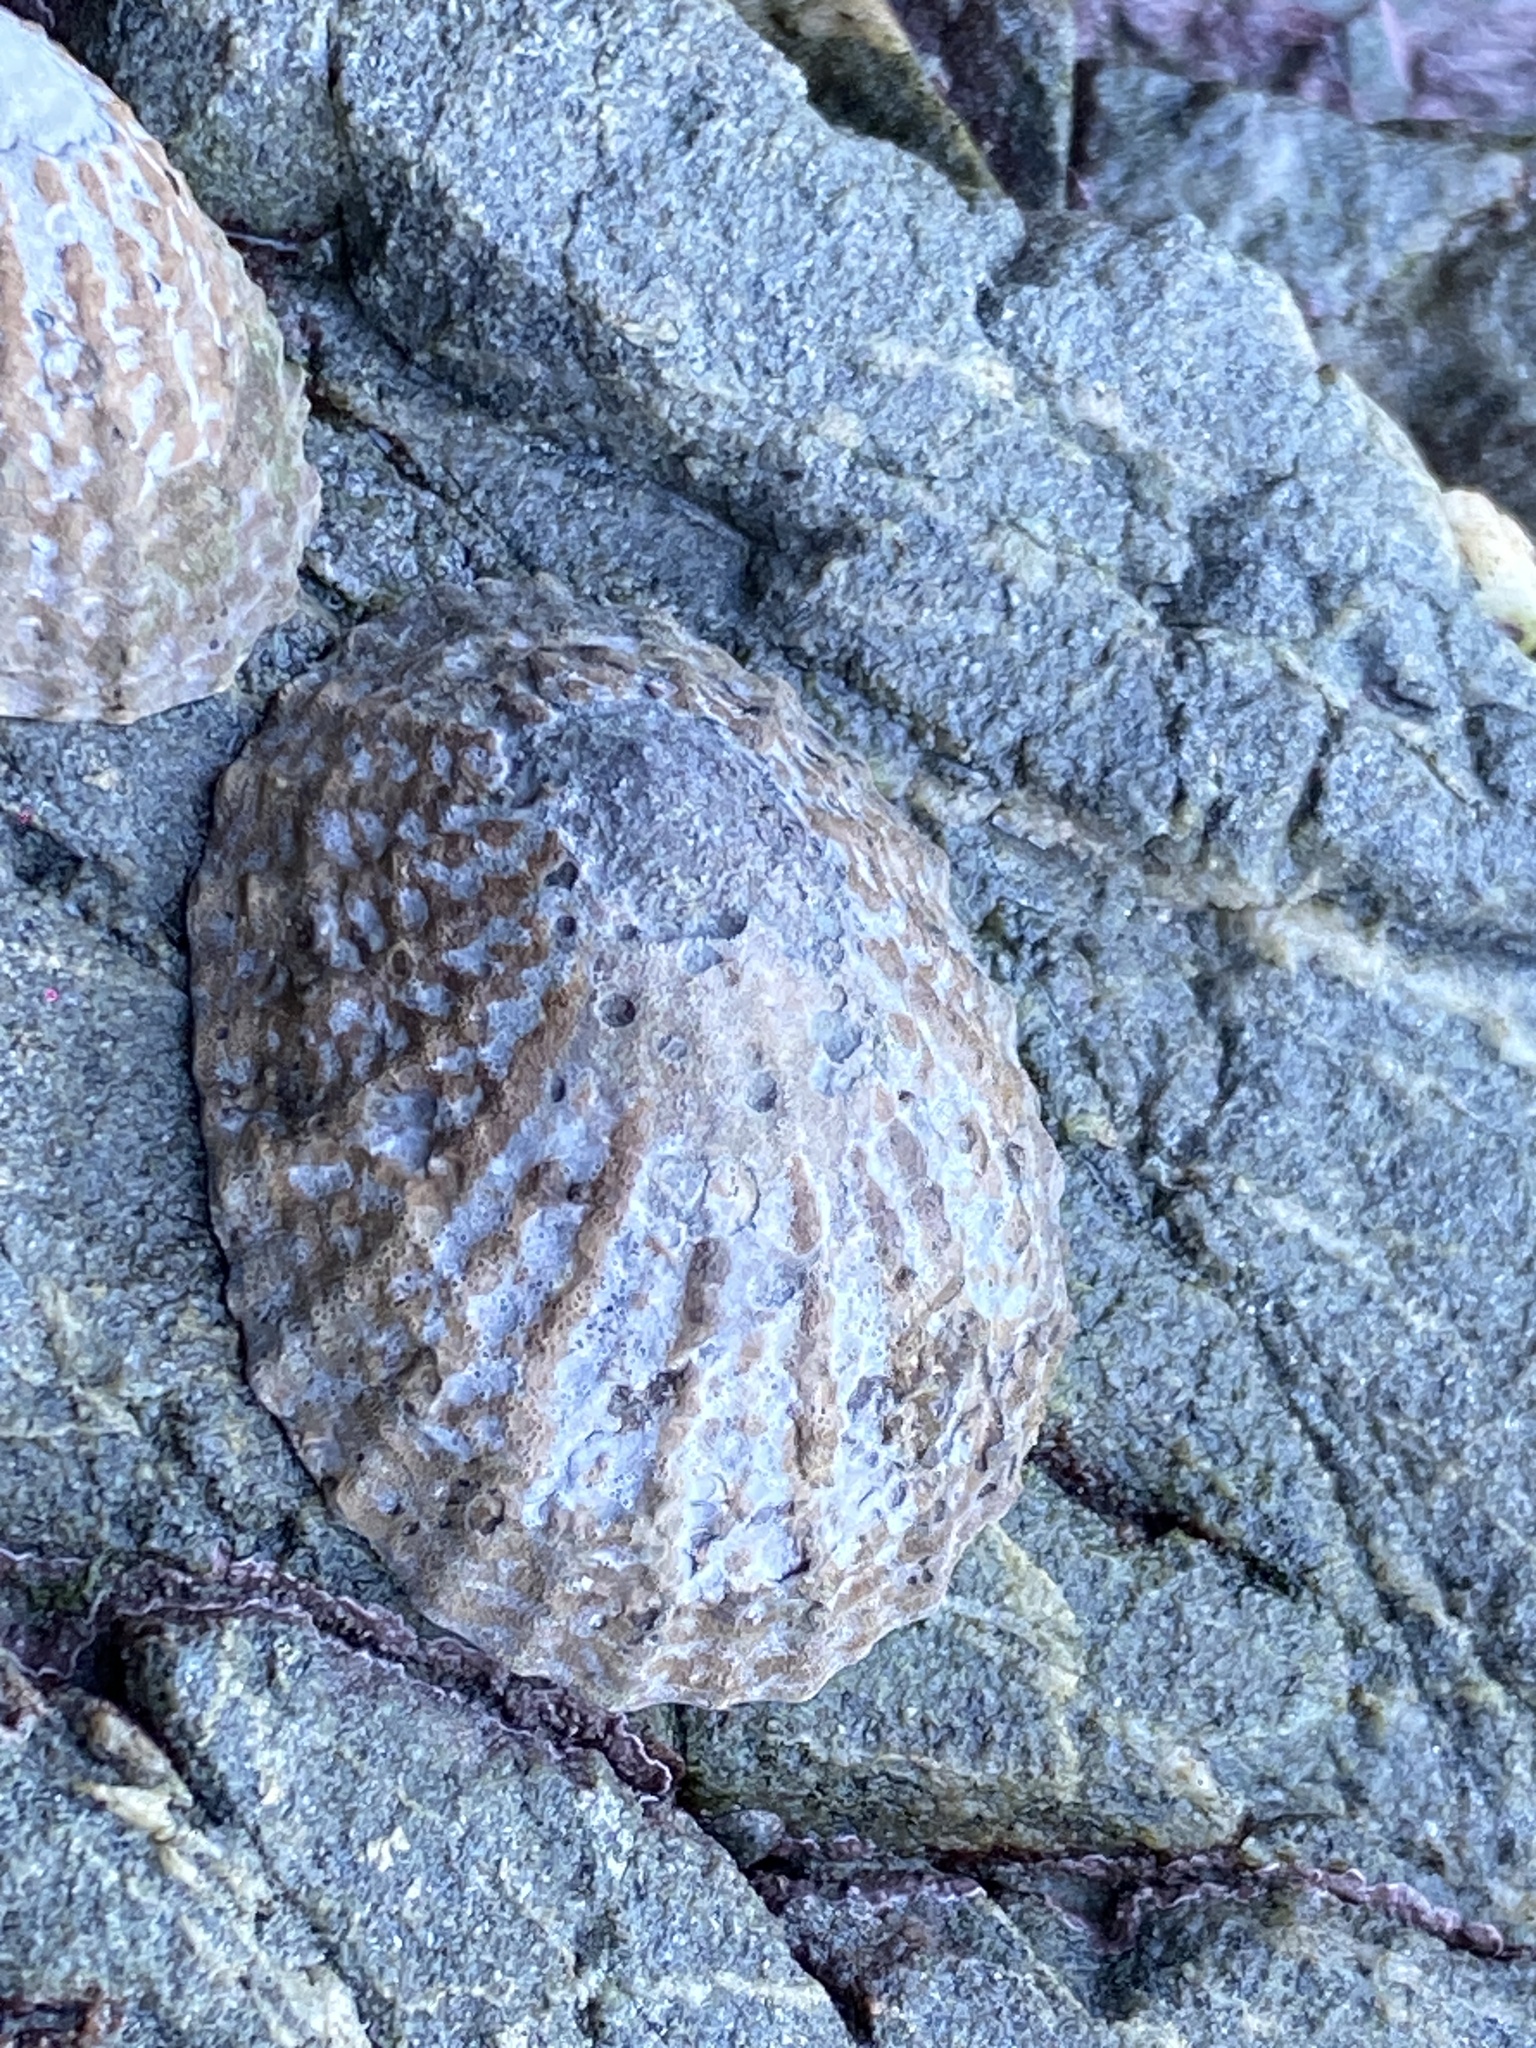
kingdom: Animalia
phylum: Mollusca
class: Gastropoda
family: Nacellidae
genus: Cellana
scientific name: Cellana denticulata
